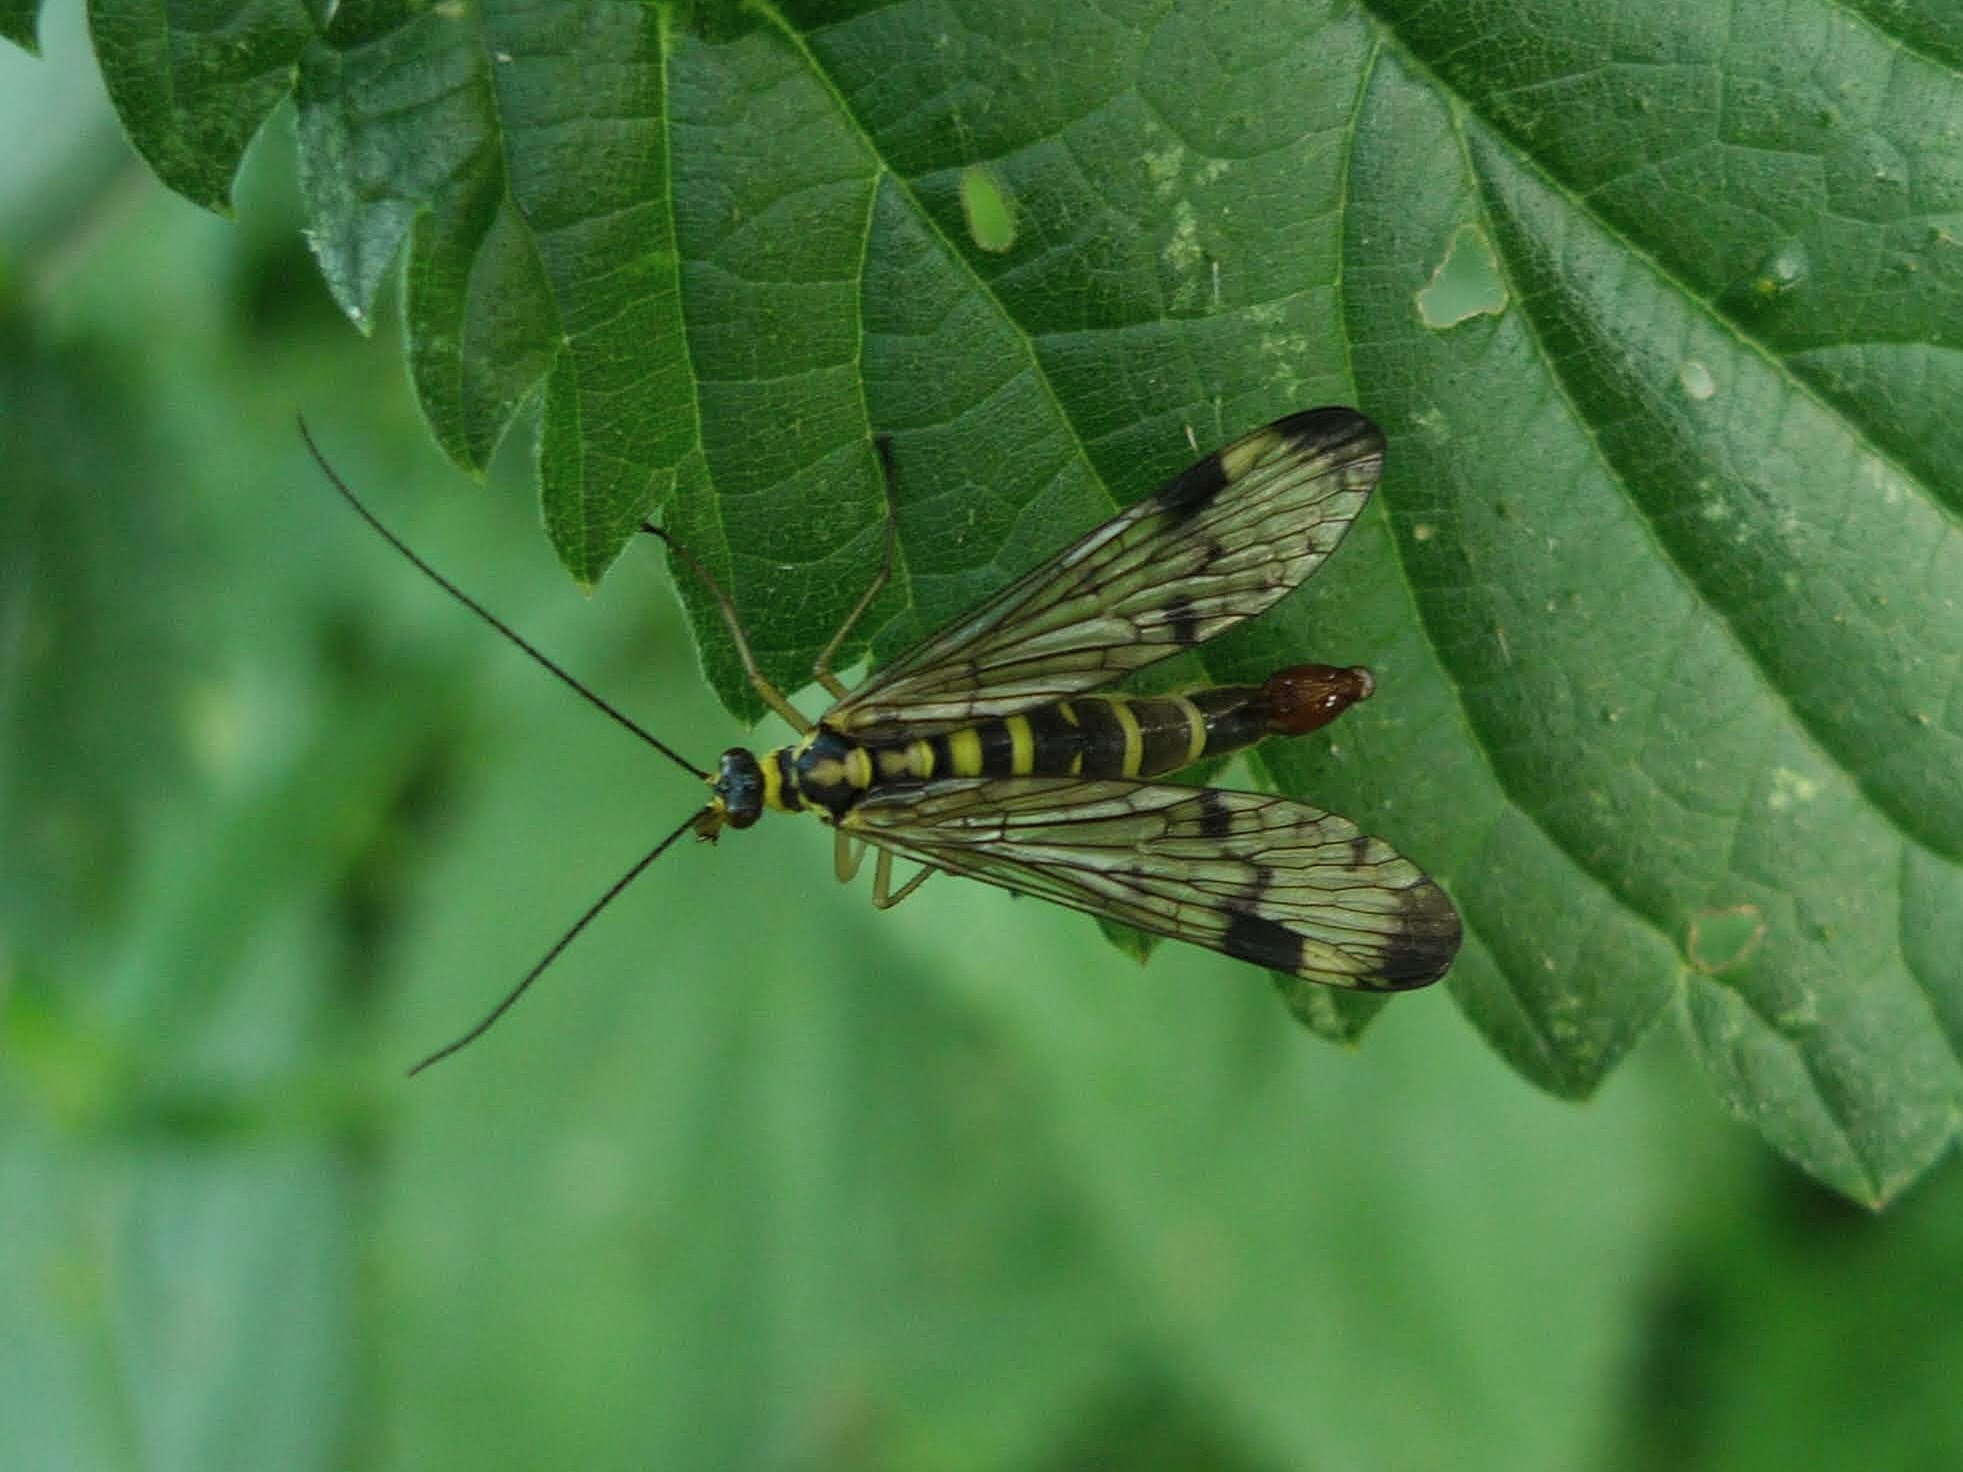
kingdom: Animalia
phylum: Arthropoda
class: Insecta
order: Mecoptera
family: Panorpidae
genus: Panorpa
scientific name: Panorpa communis
